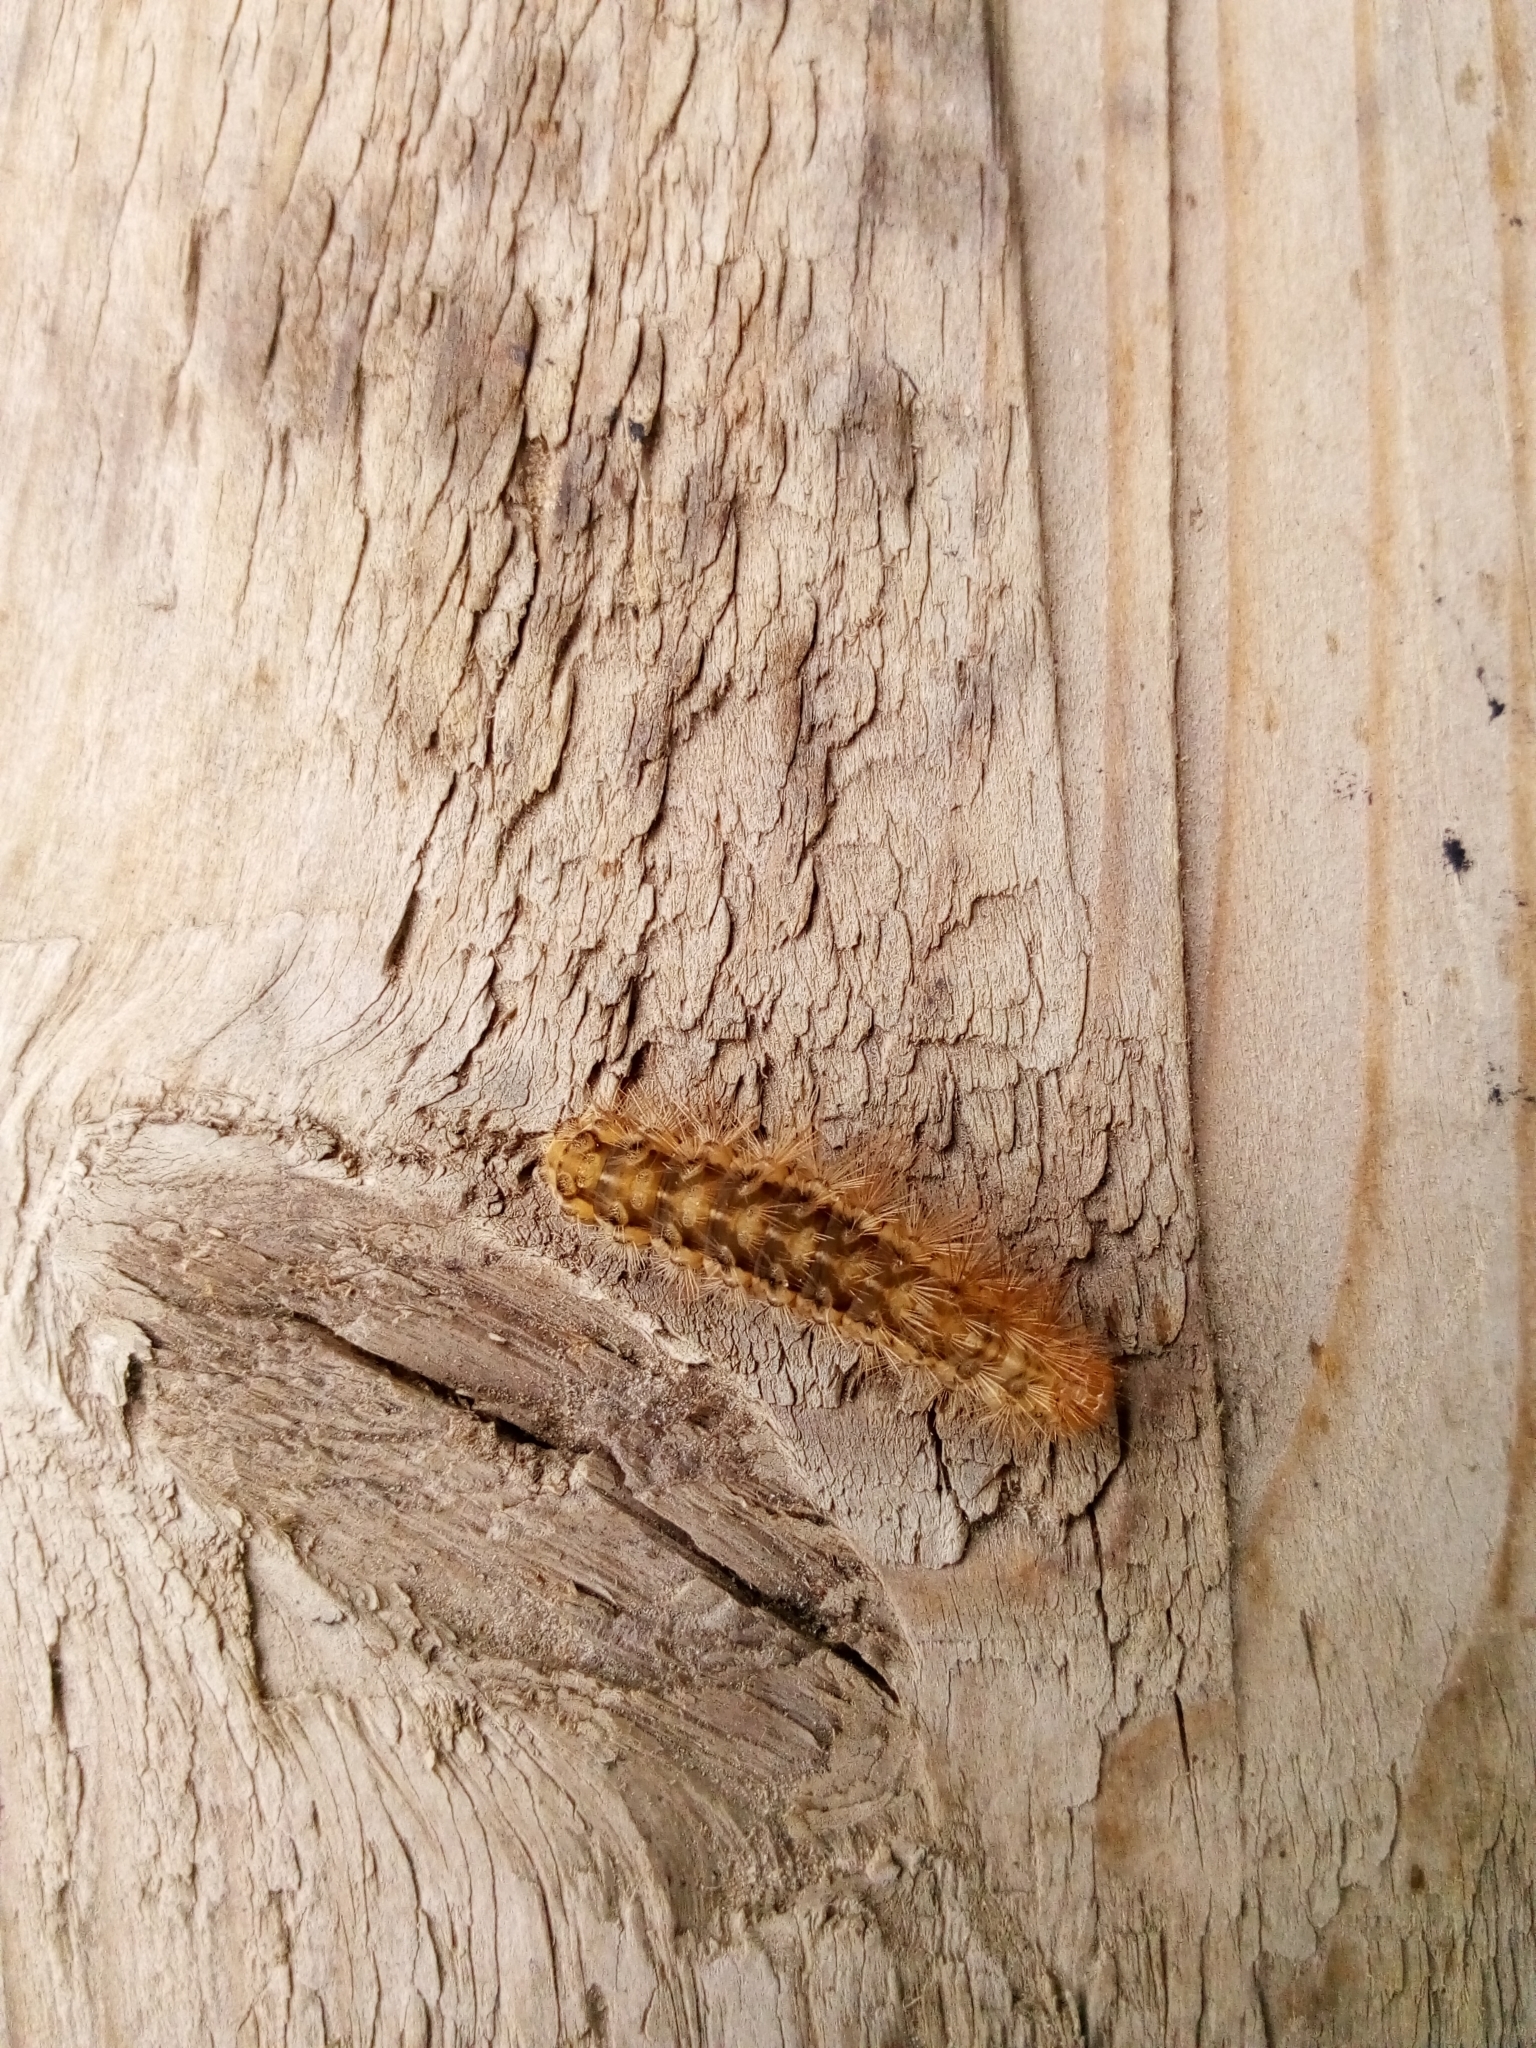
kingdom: Animalia
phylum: Arthropoda
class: Insecta
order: Lepidoptera
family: Erebidae
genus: Spilarctia
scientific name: Spilarctia lutea
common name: Buff ermine
